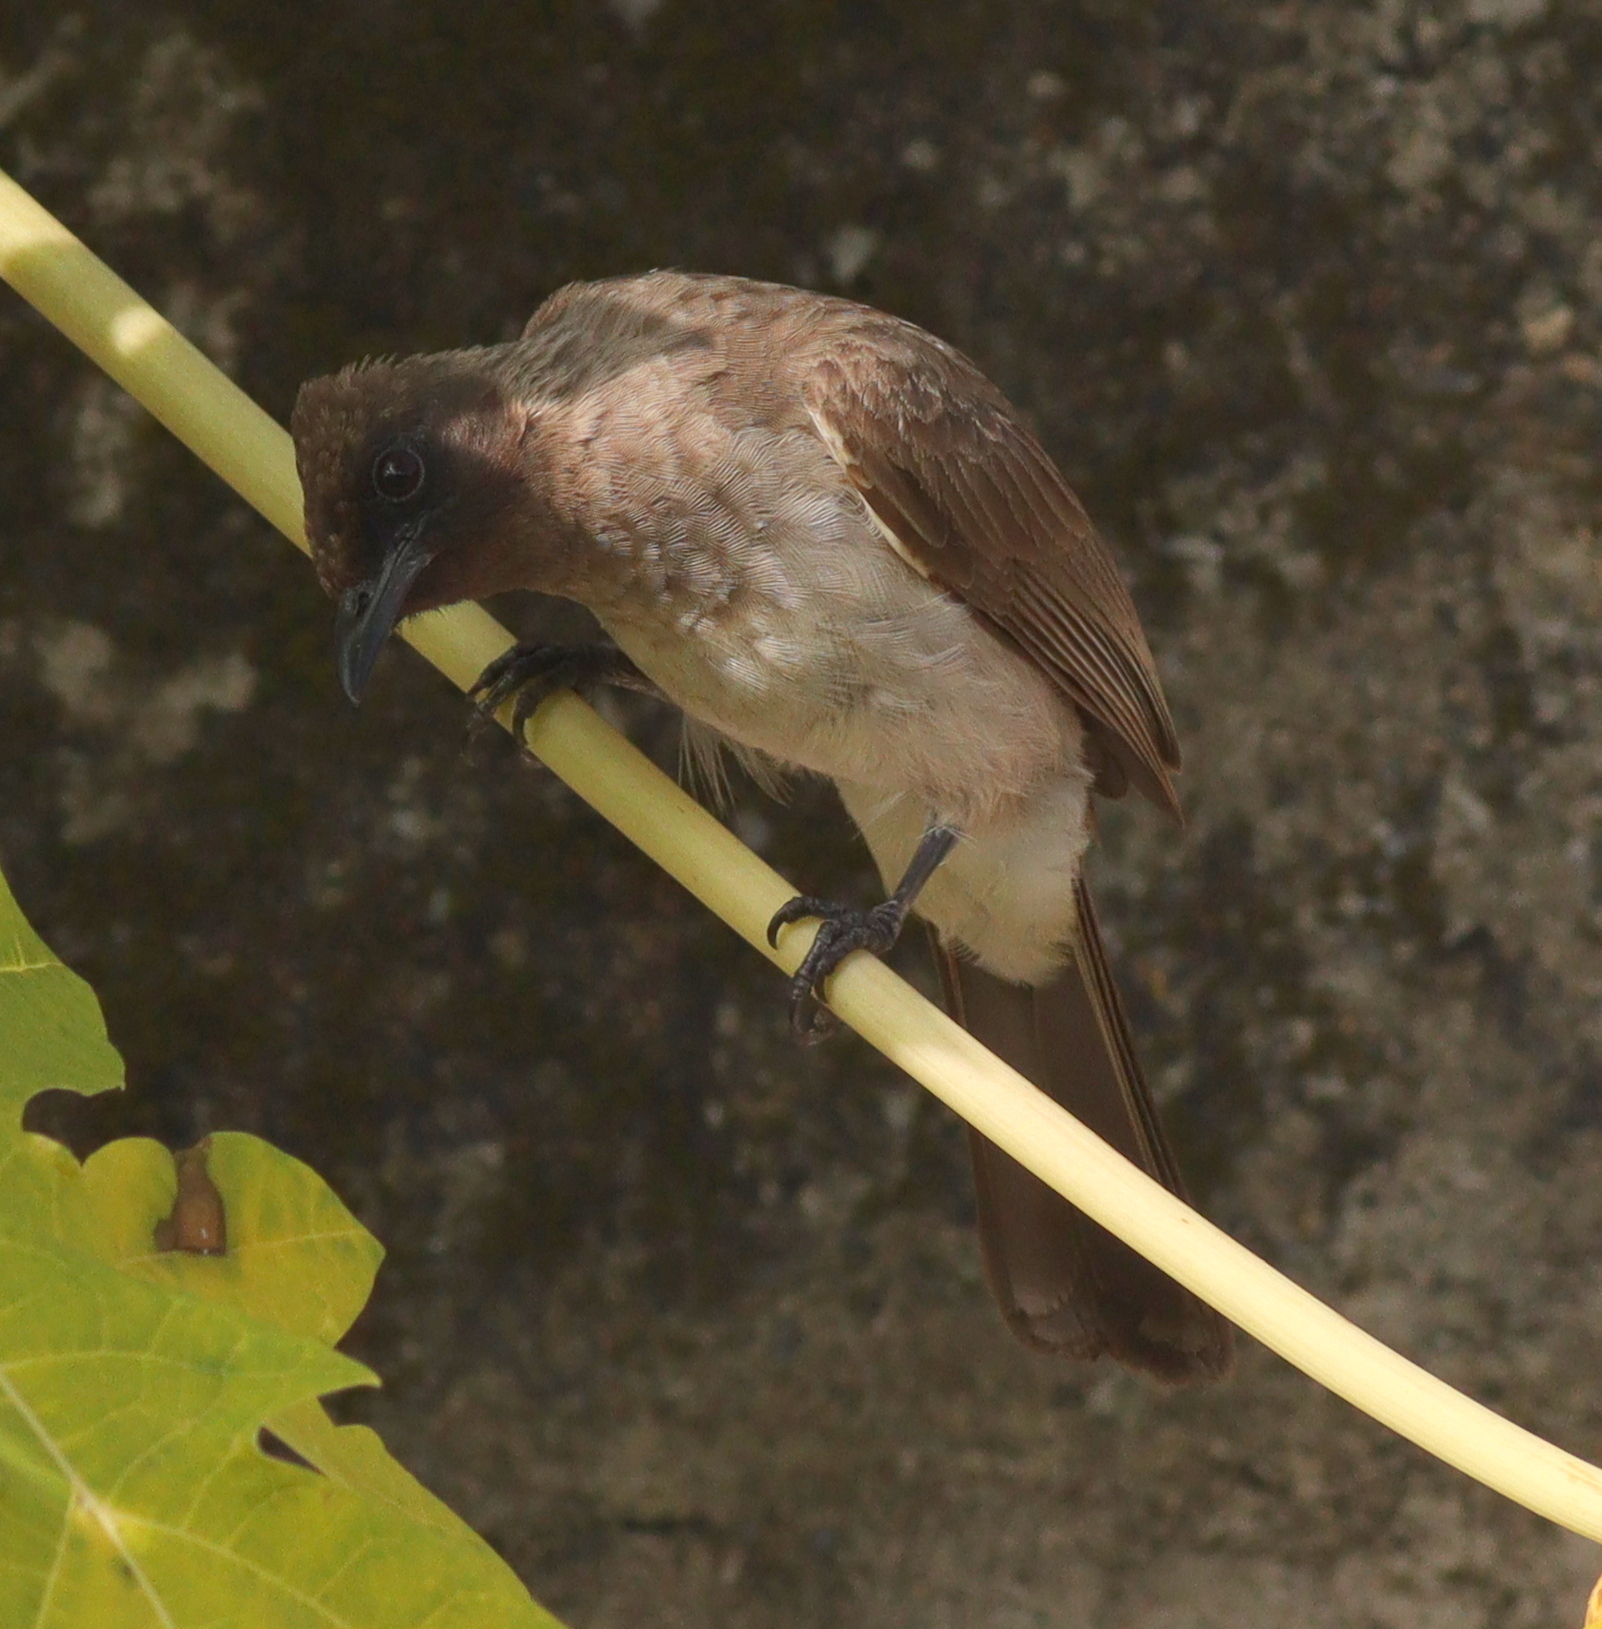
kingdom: Animalia
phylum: Chordata
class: Aves
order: Passeriformes
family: Pycnonotidae
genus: Pycnonotus
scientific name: Pycnonotus barbatus
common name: Common bulbul
